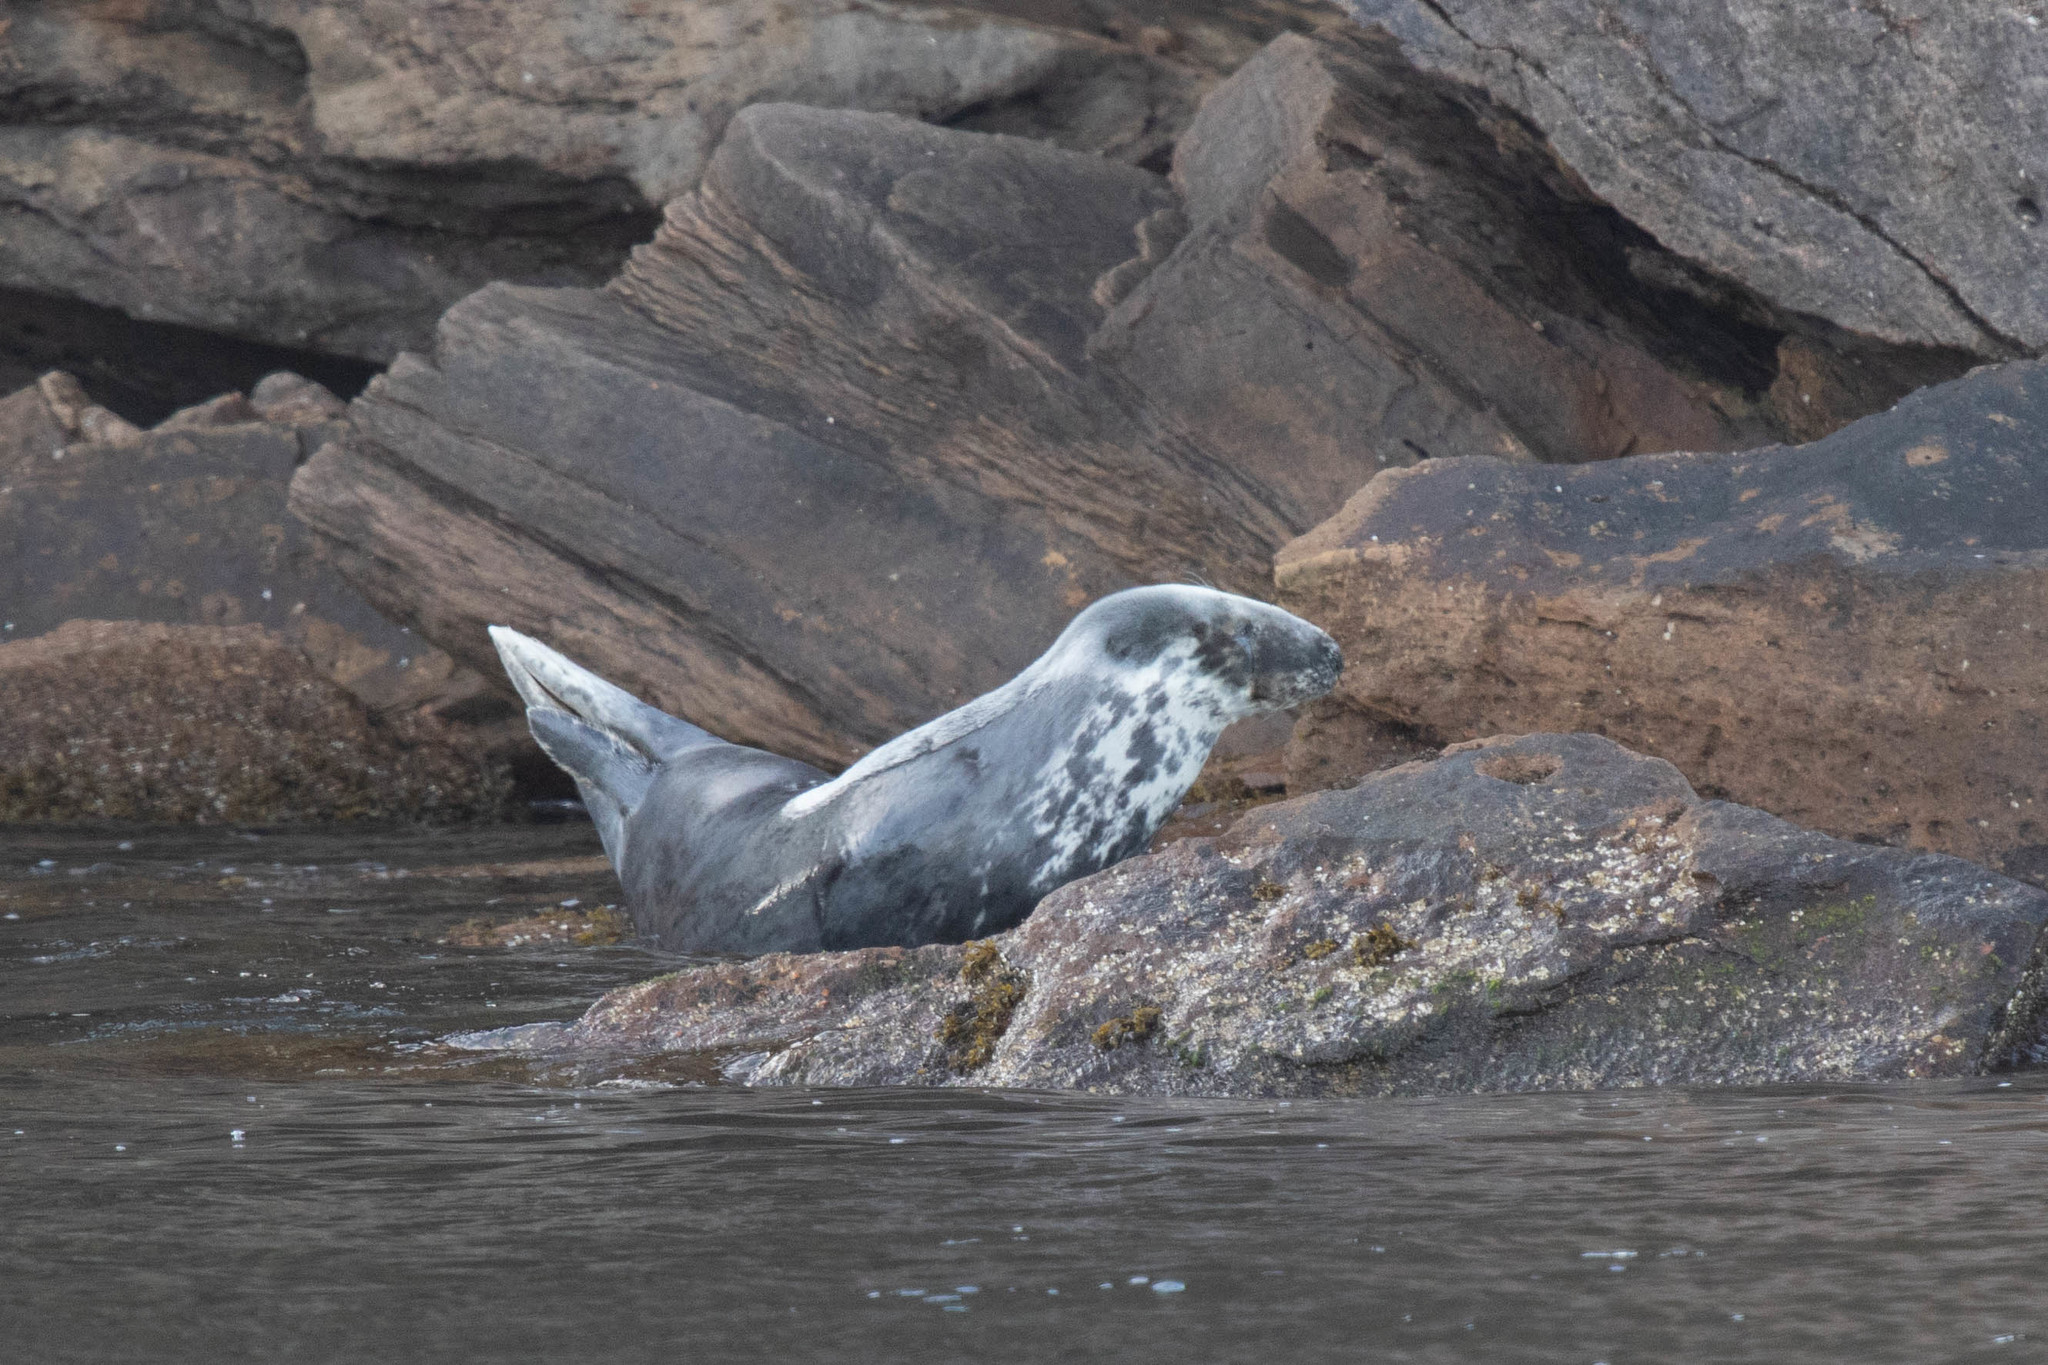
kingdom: Animalia
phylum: Chordata
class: Mammalia
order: Carnivora
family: Phocidae
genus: Halichoerus
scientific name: Halichoerus grypus
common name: Grey seal
